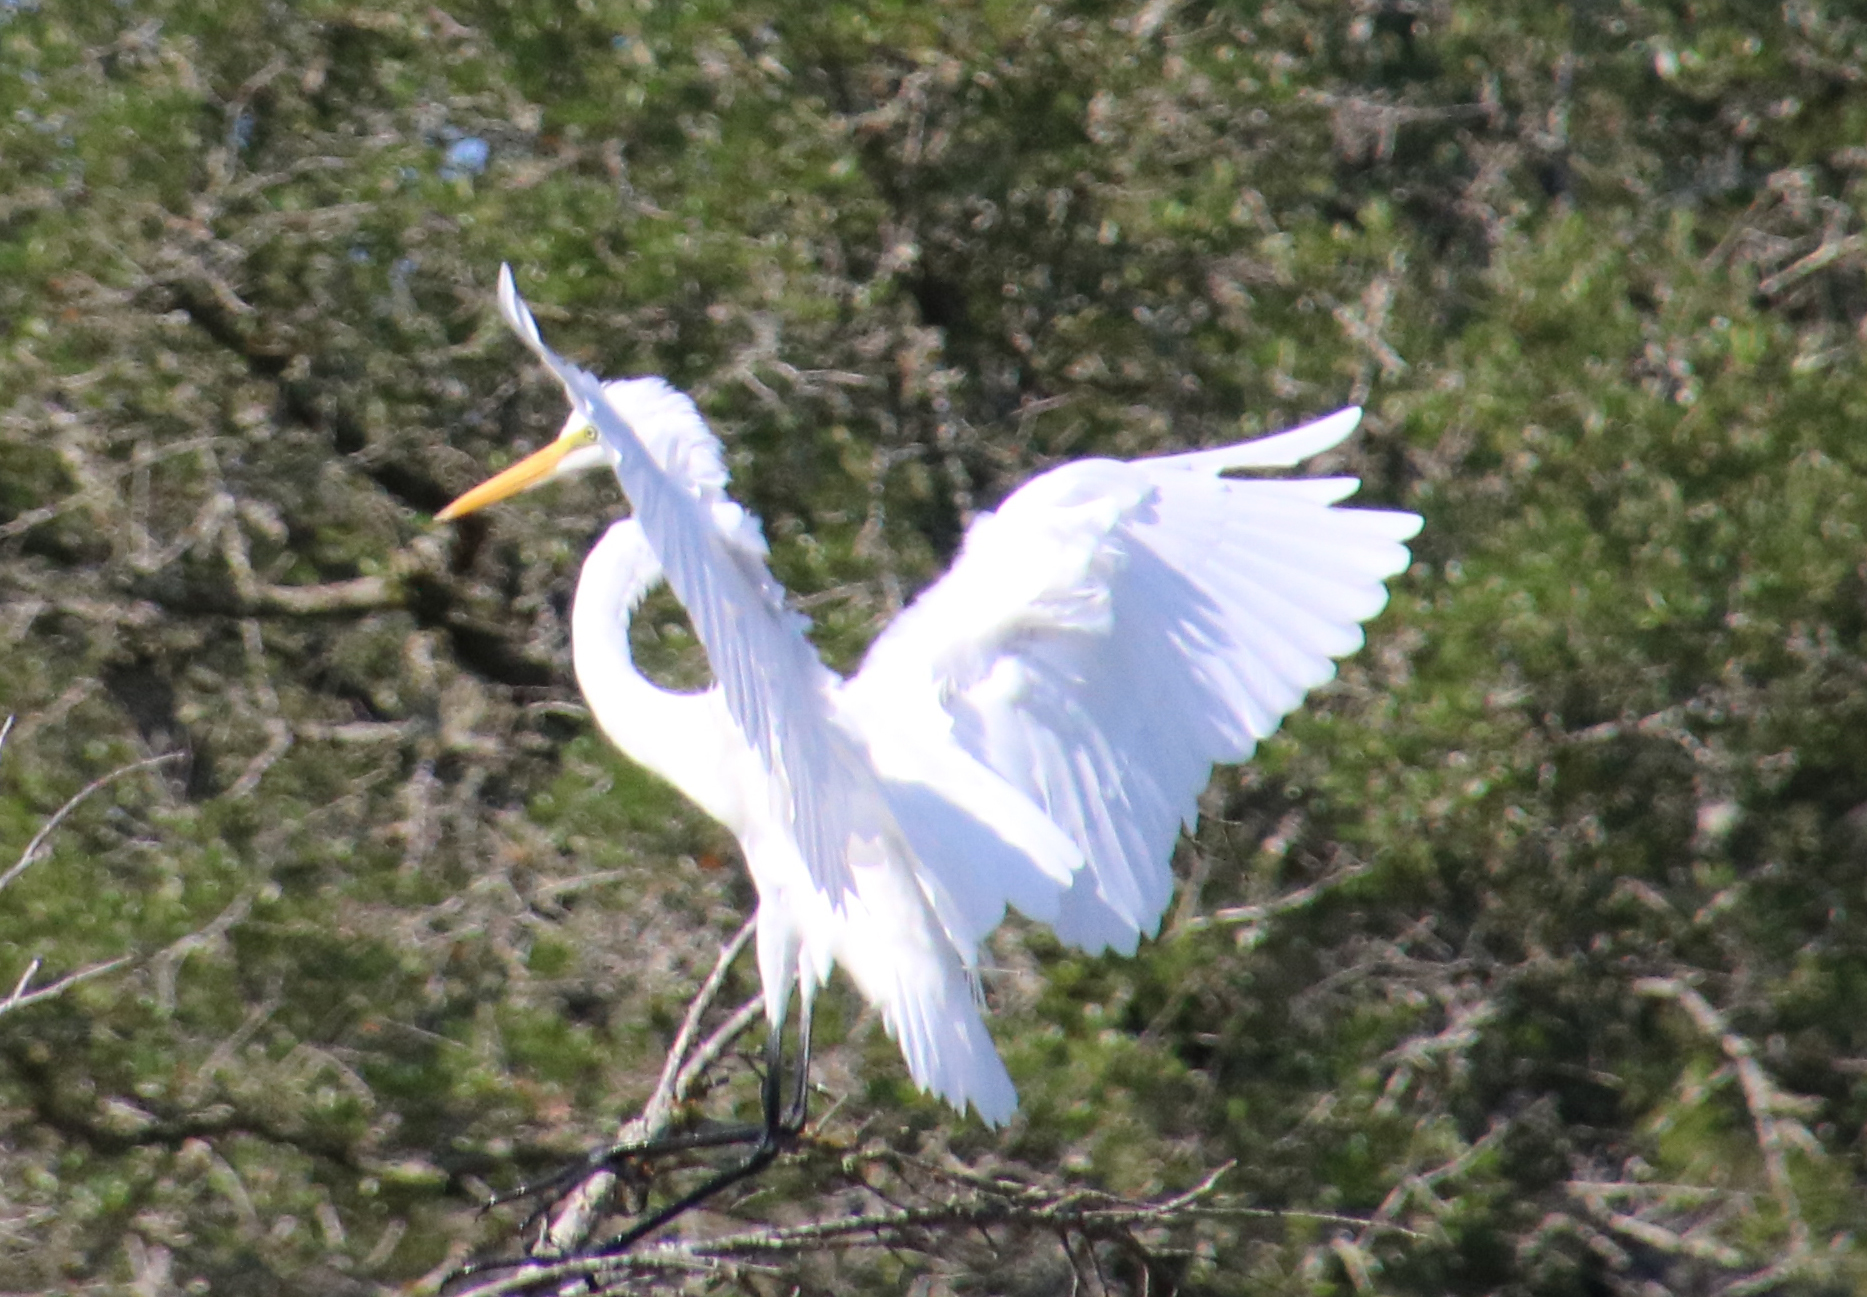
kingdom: Animalia
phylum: Chordata
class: Aves
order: Pelecaniformes
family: Ardeidae
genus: Ardea
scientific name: Ardea alba
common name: Great egret
